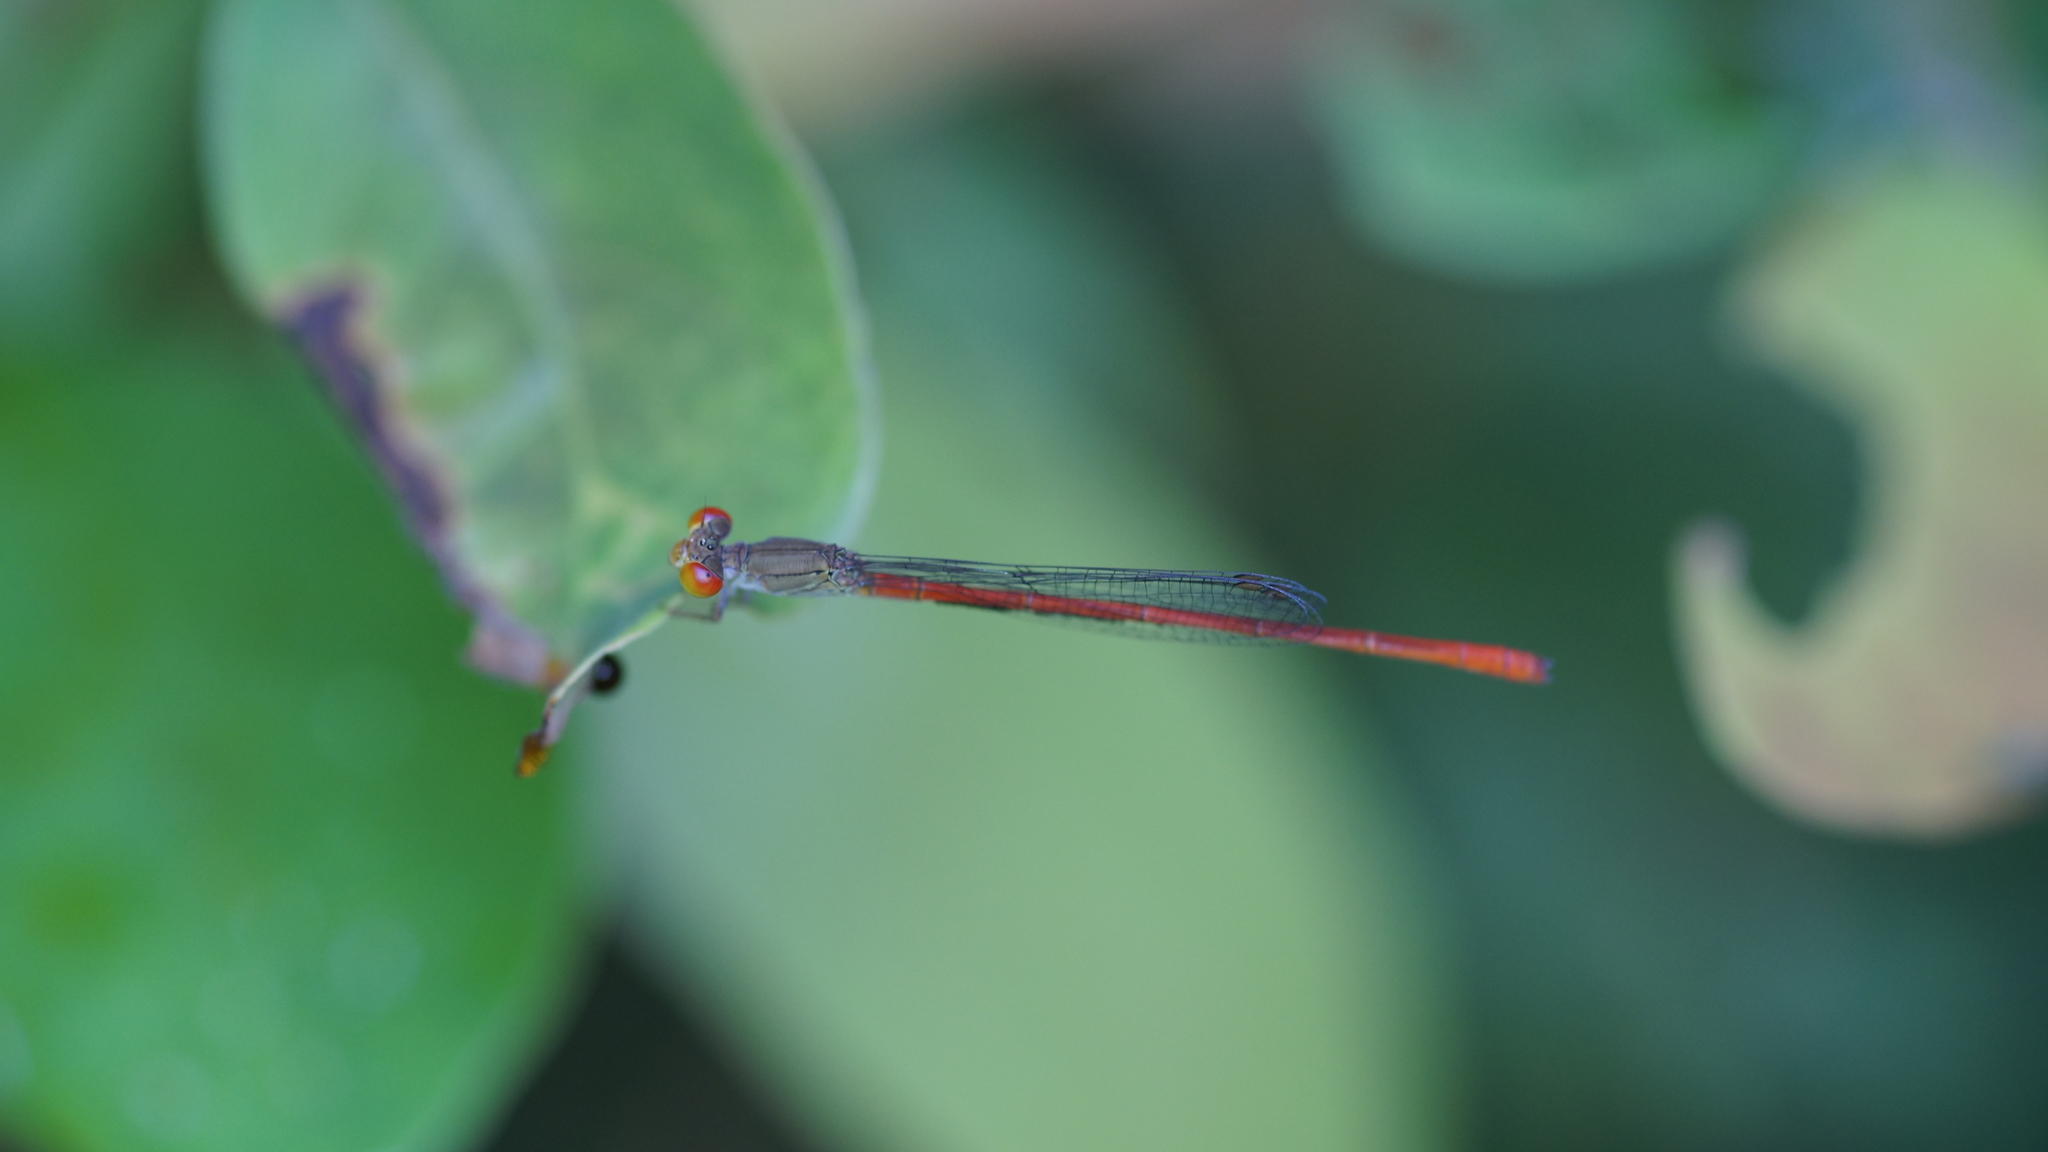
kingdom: Animalia
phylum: Arthropoda
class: Insecta
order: Odonata
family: Coenagrionidae
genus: Ceriagrion
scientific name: Ceriagrion praetermissum
